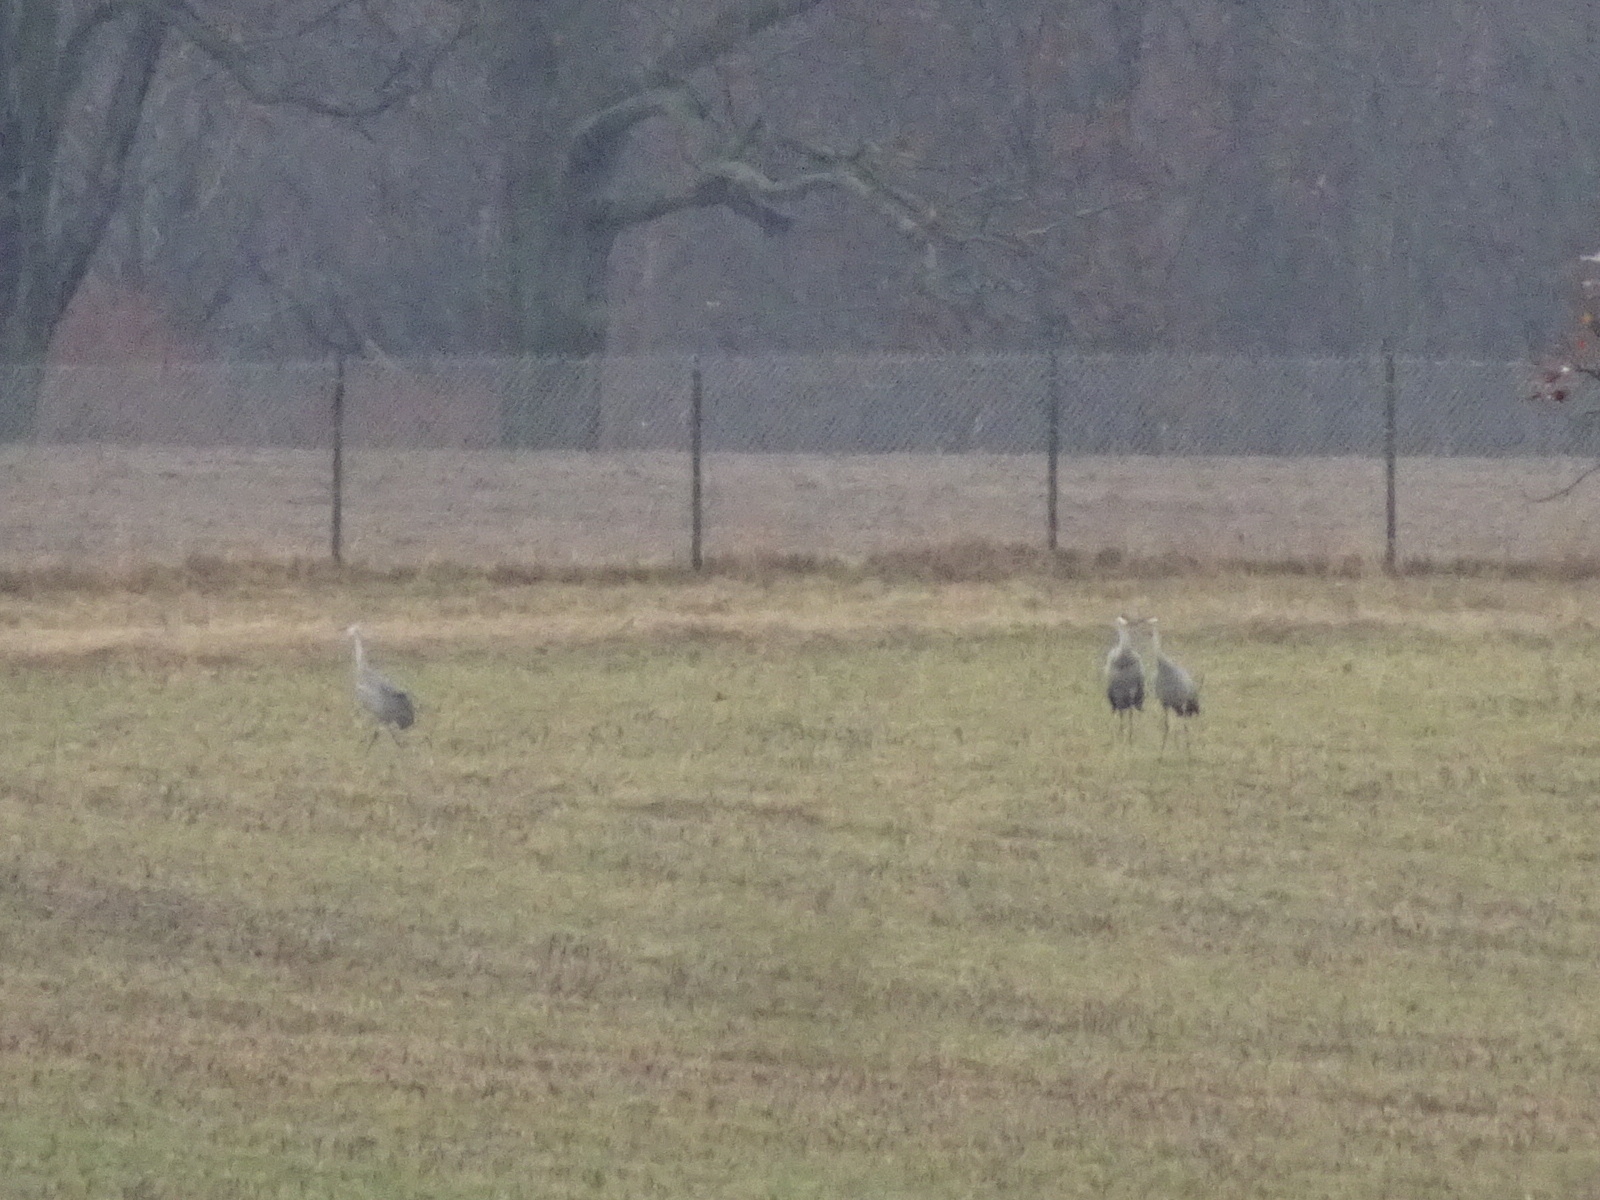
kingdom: Animalia
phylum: Chordata
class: Aves
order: Gruiformes
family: Gruidae
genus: Grus
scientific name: Grus canadensis
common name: Sandhill crane
